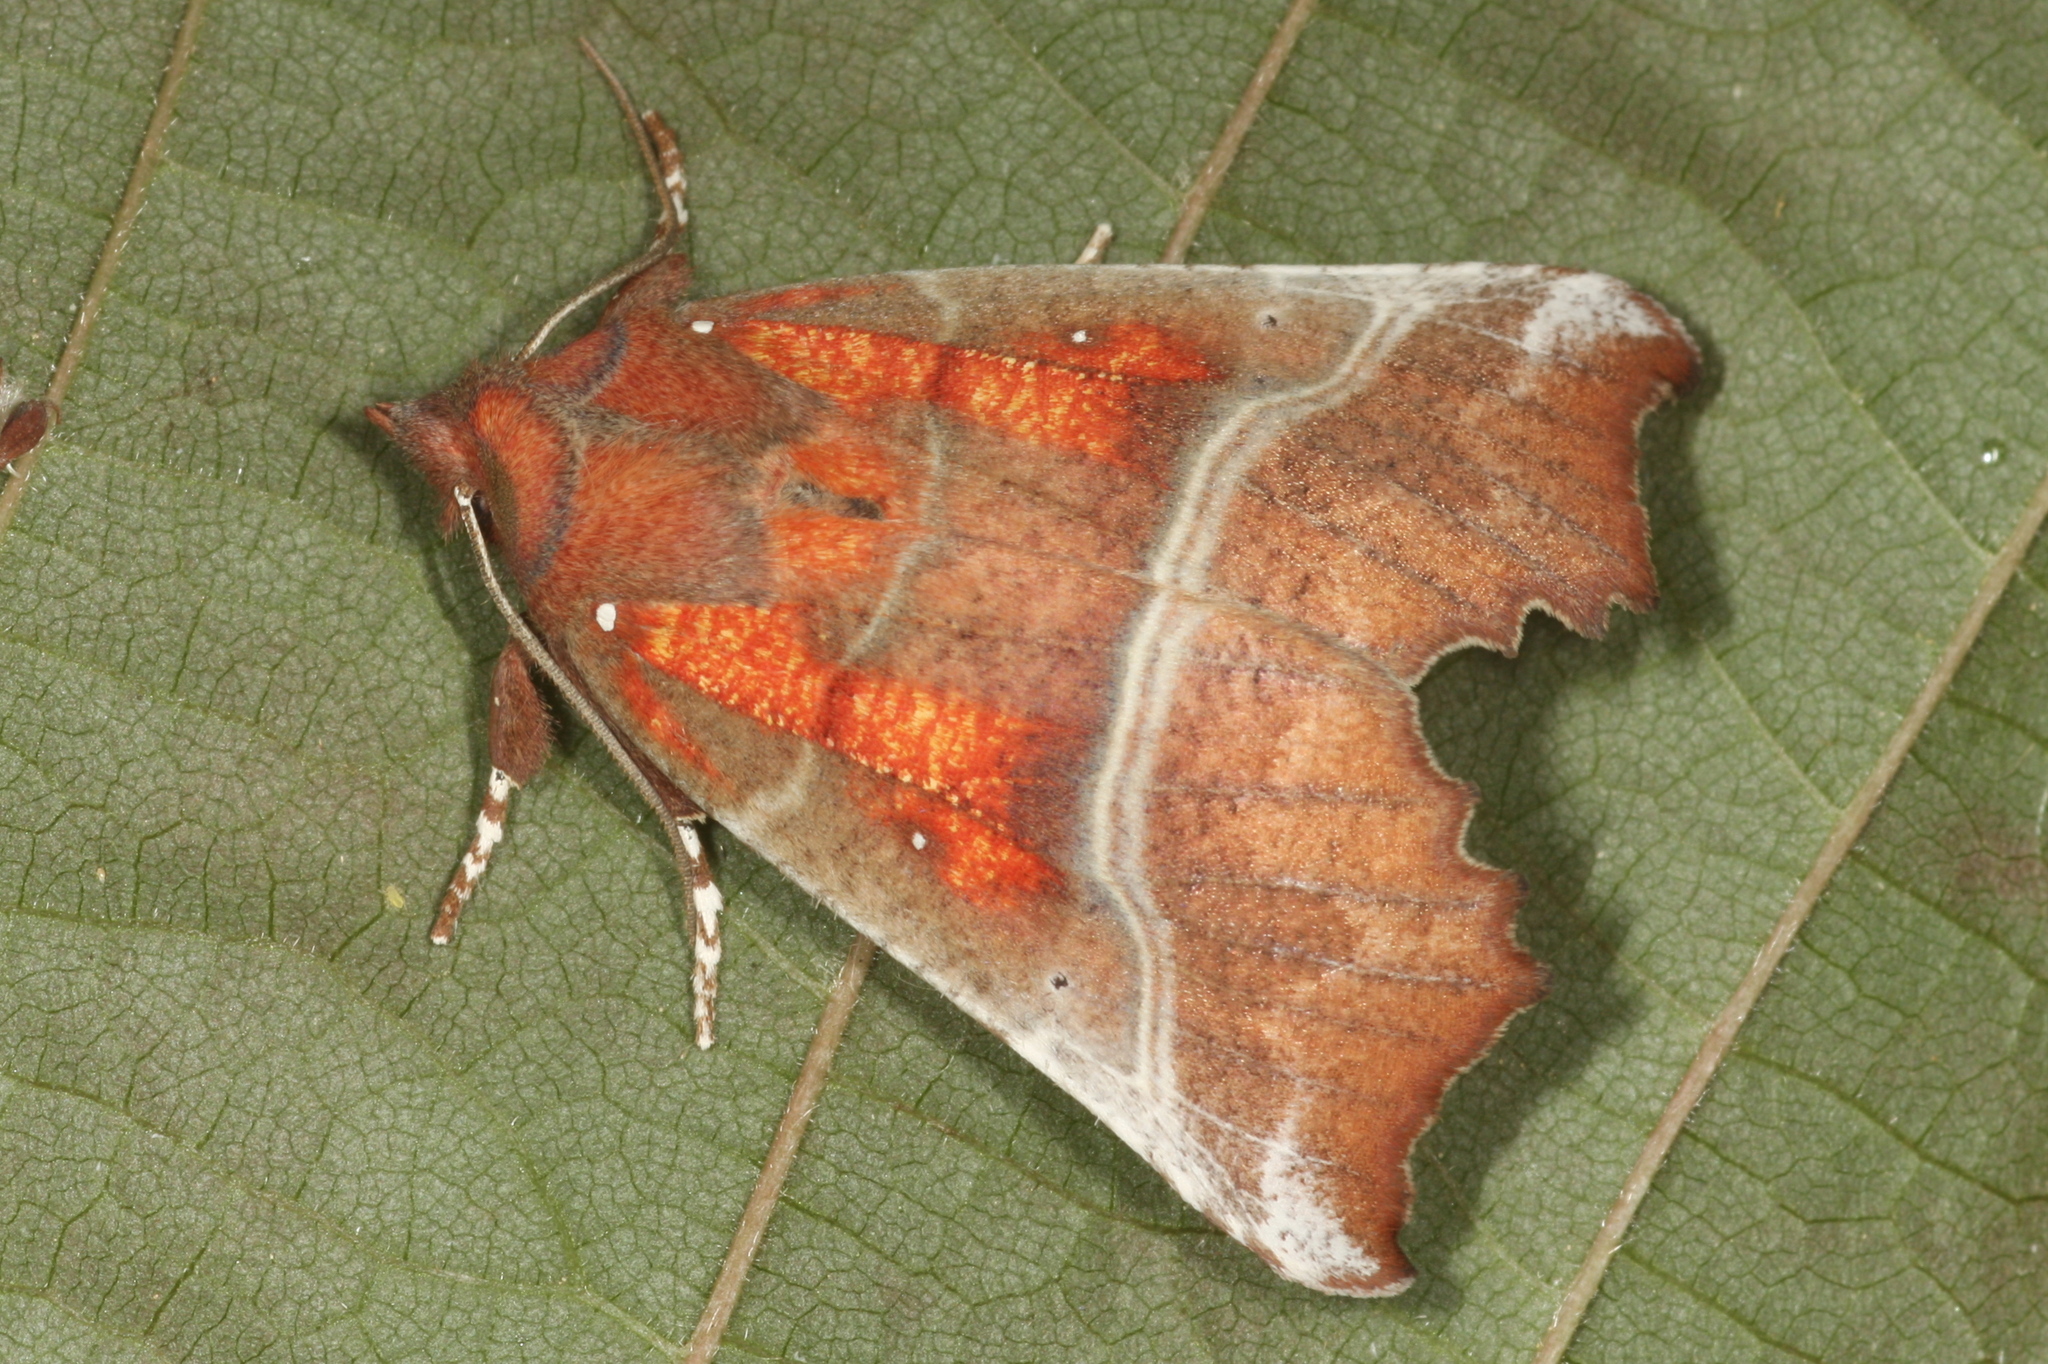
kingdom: Animalia
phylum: Arthropoda
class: Insecta
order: Lepidoptera
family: Erebidae
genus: Scoliopteryx
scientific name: Scoliopteryx libatrix
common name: Herald
